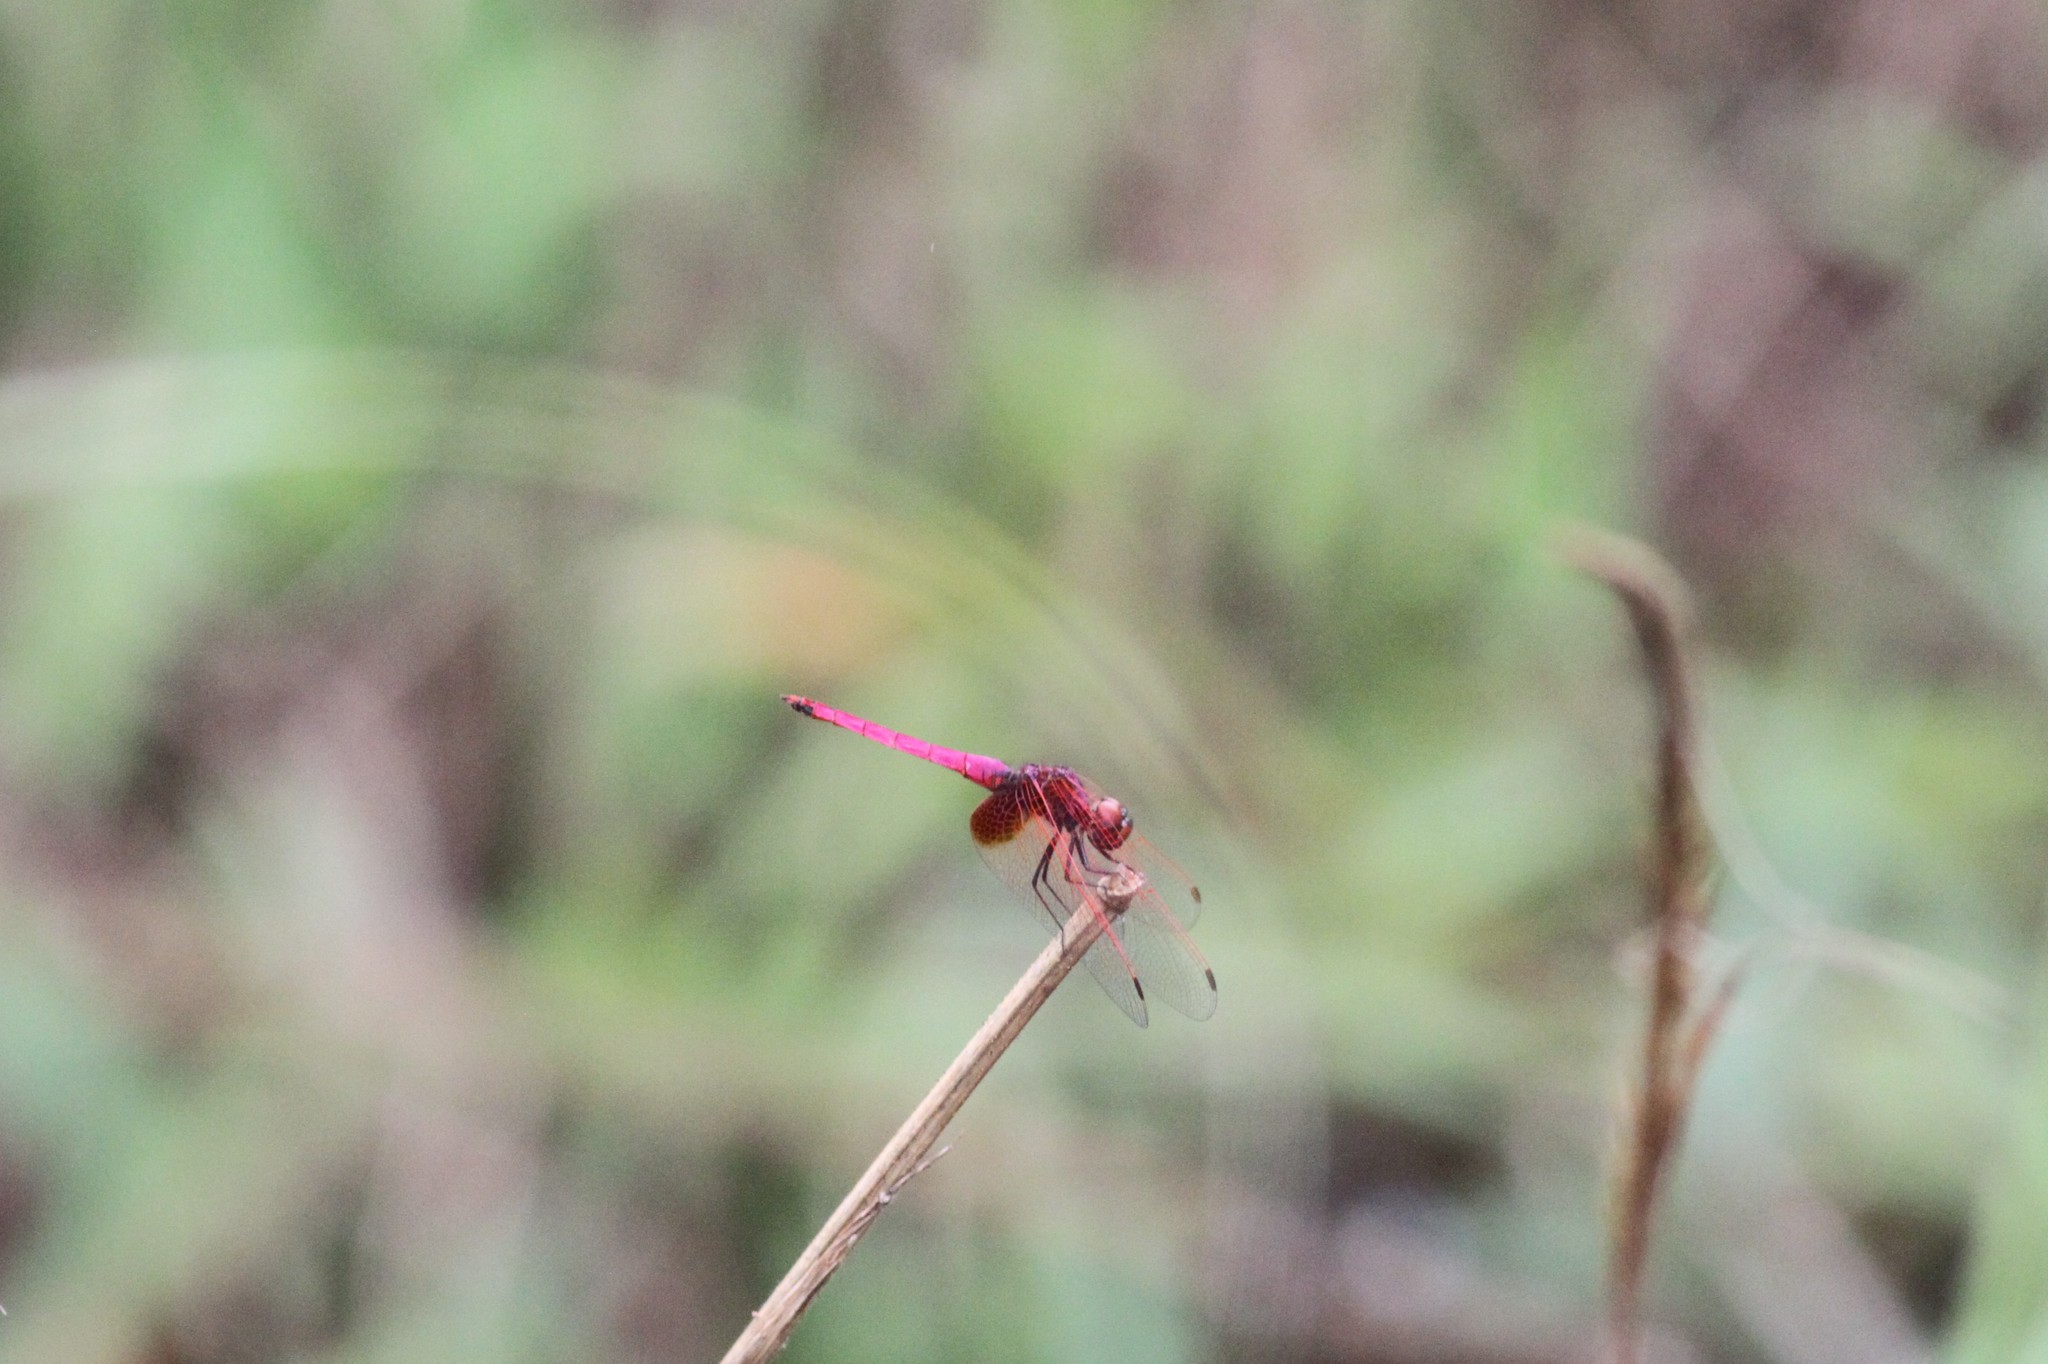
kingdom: Animalia
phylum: Arthropoda
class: Insecta
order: Odonata
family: Libellulidae
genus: Trithemis
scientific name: Trithemis aurora
